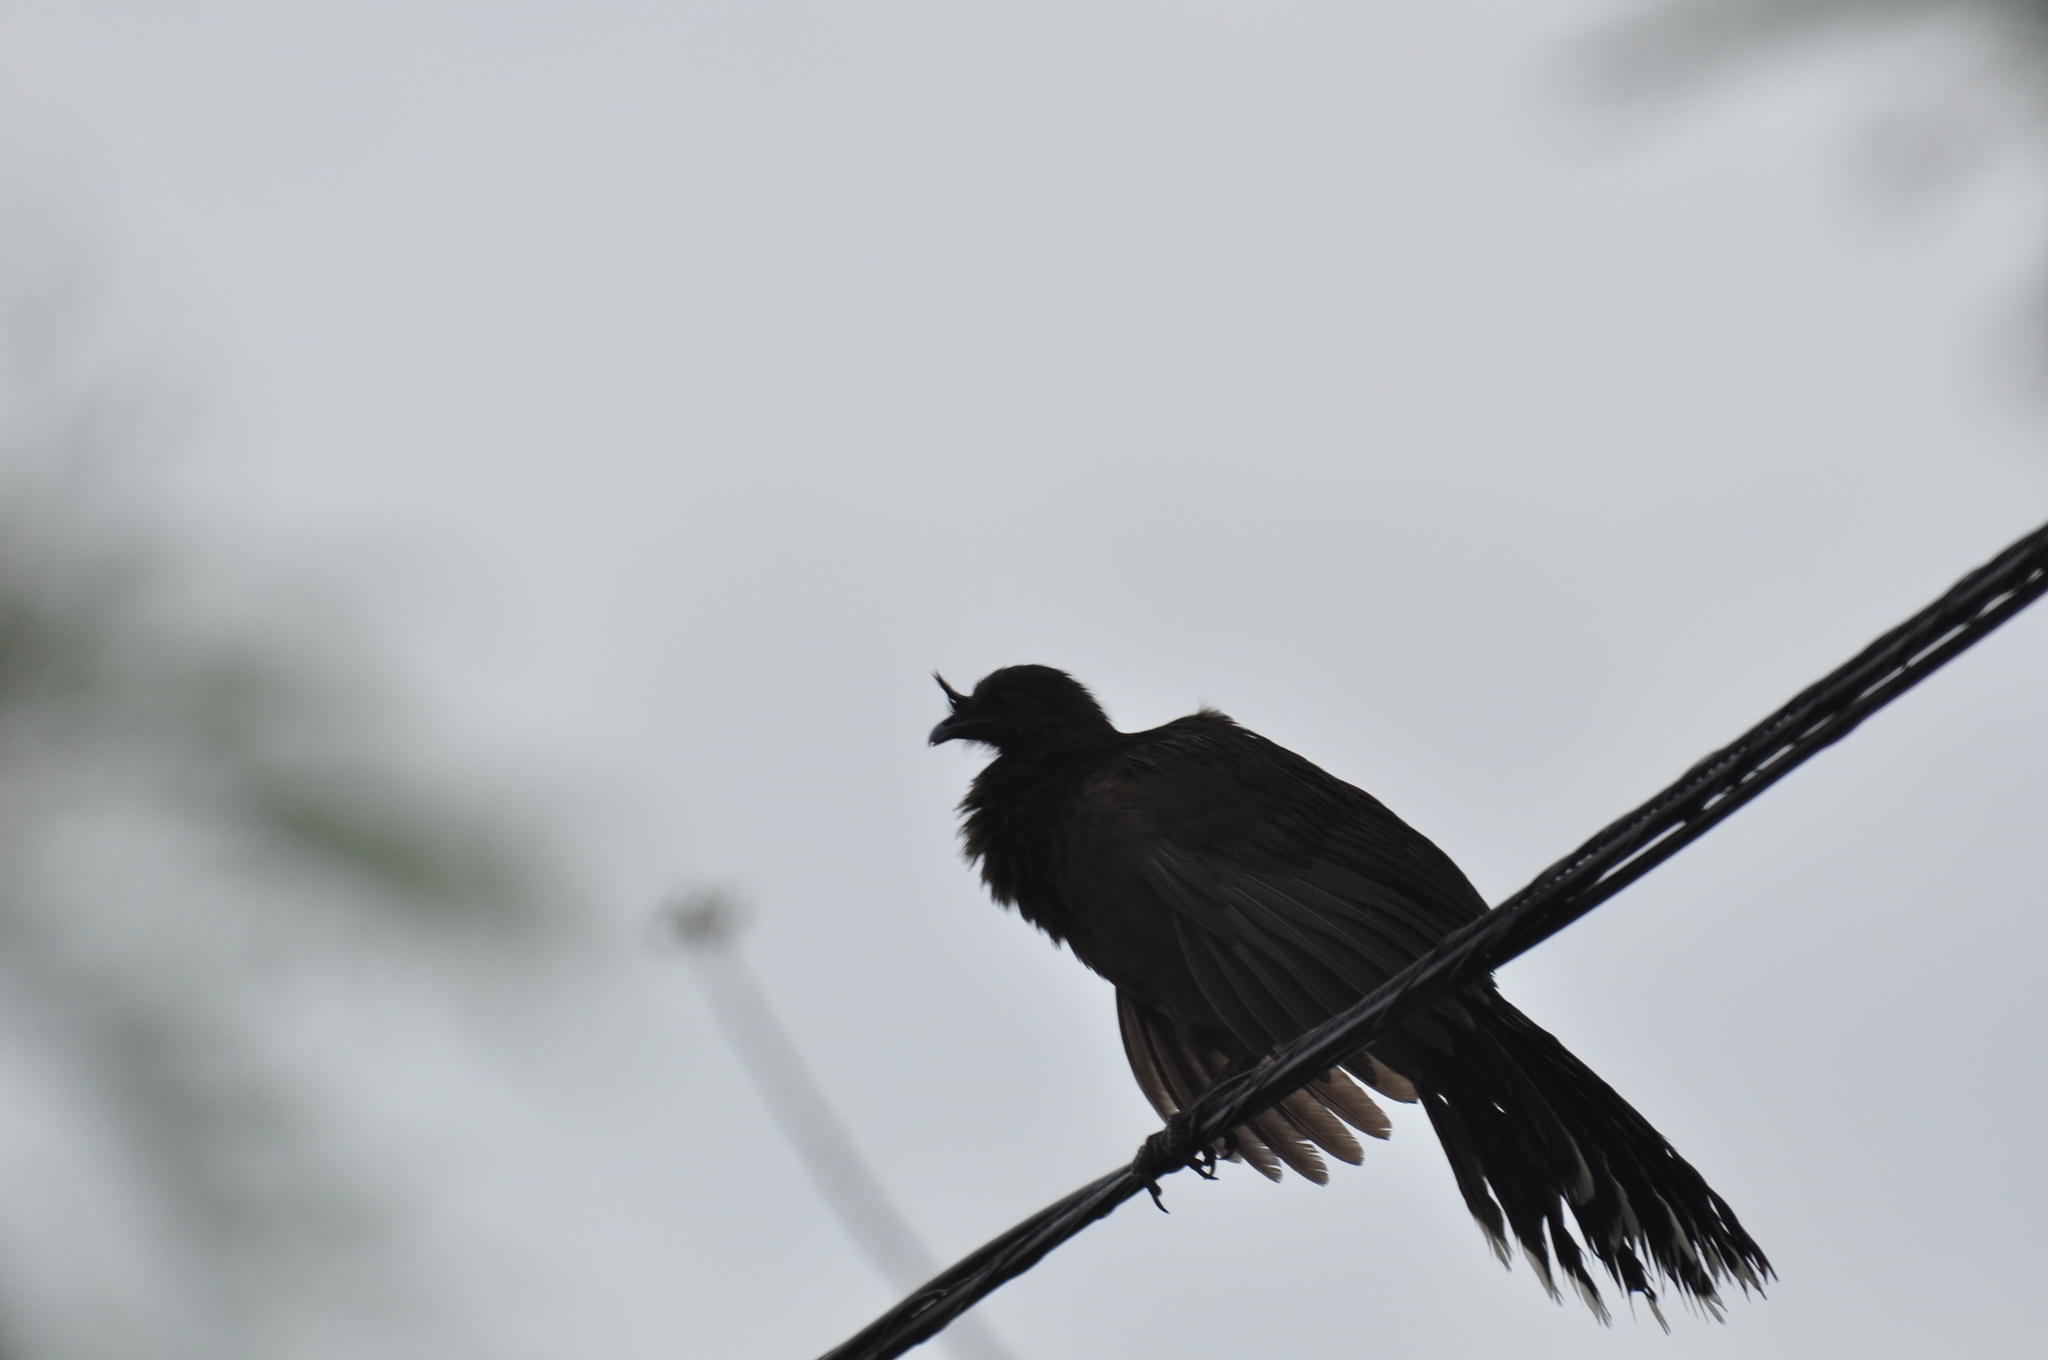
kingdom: Animalia
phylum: Chordata
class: Aves
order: Galliformes
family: Cracidae
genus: Ortalis
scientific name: Ortalis vetula
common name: Plain chachalaca
